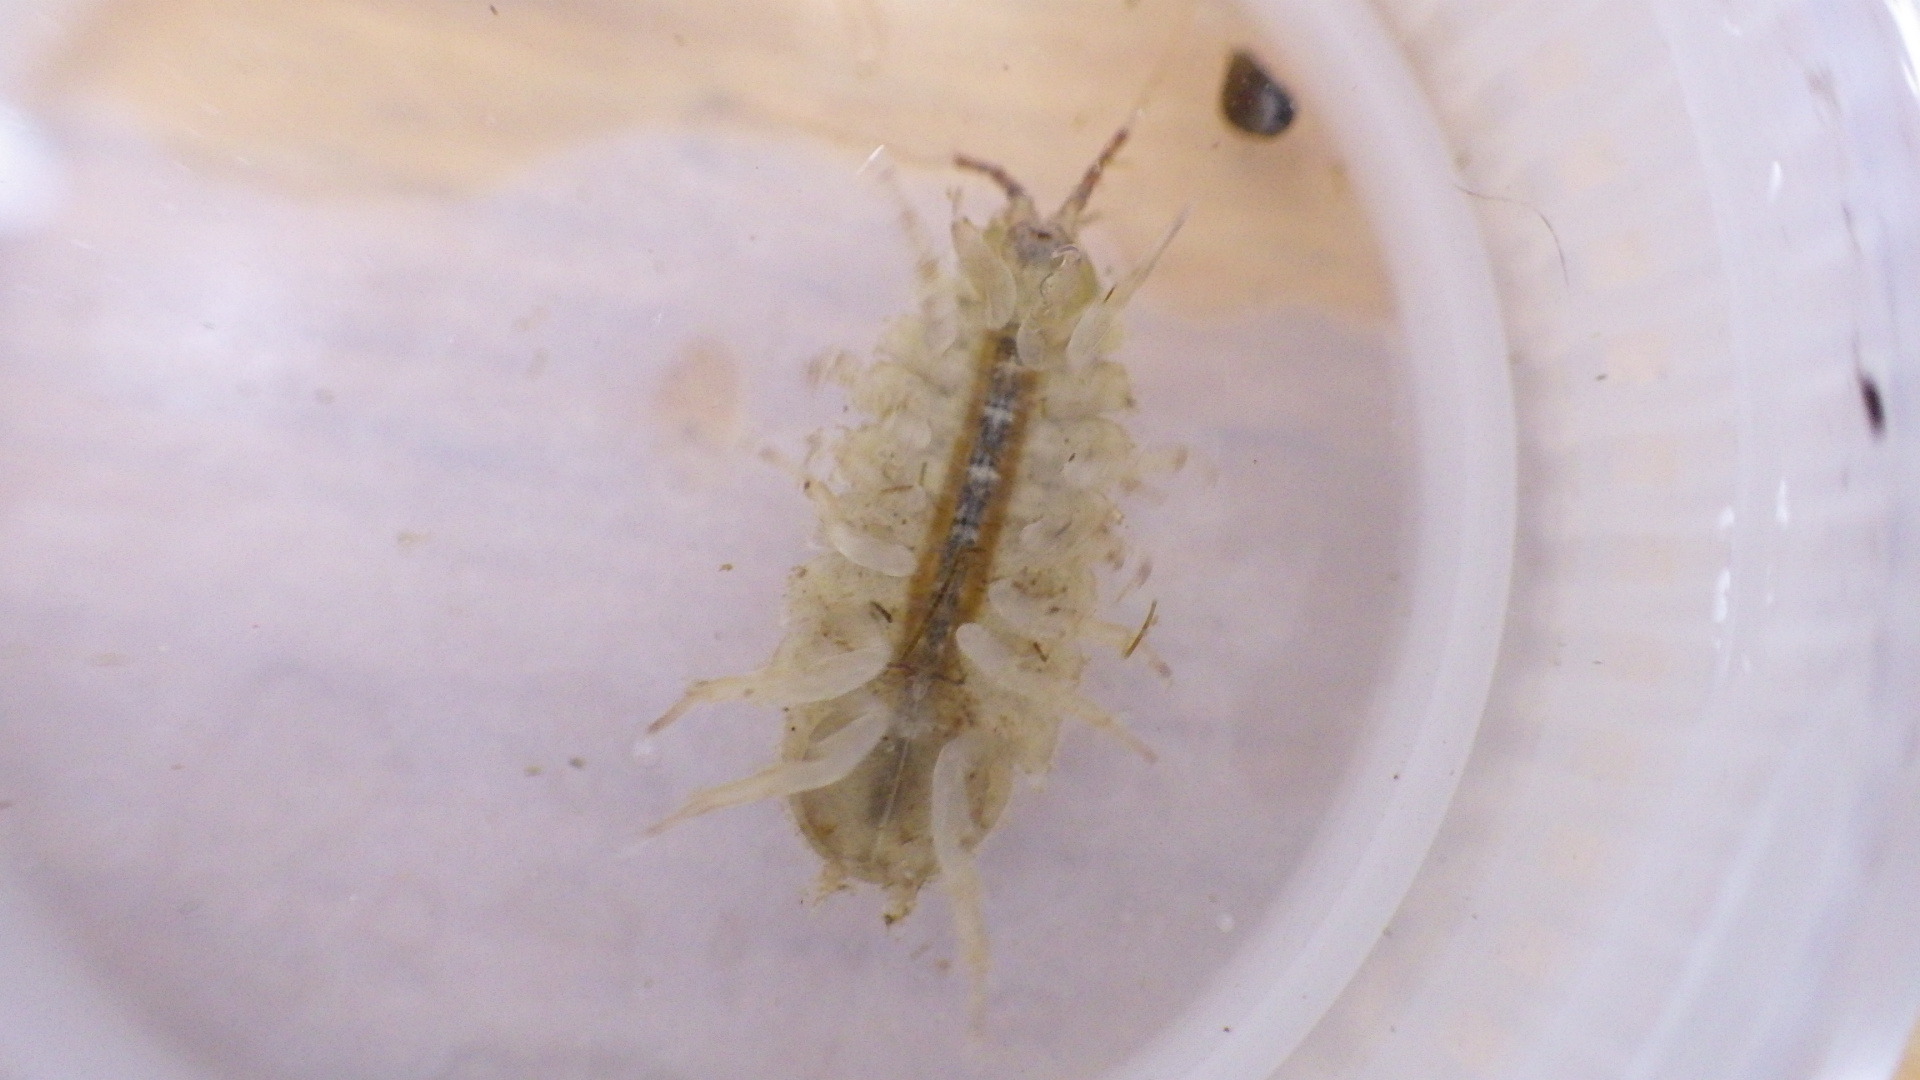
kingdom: Animalia
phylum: Arthropoda
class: Malacostraca
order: Isopoda
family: Asellidae
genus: Lirceus
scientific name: Lirceus brachyurus
